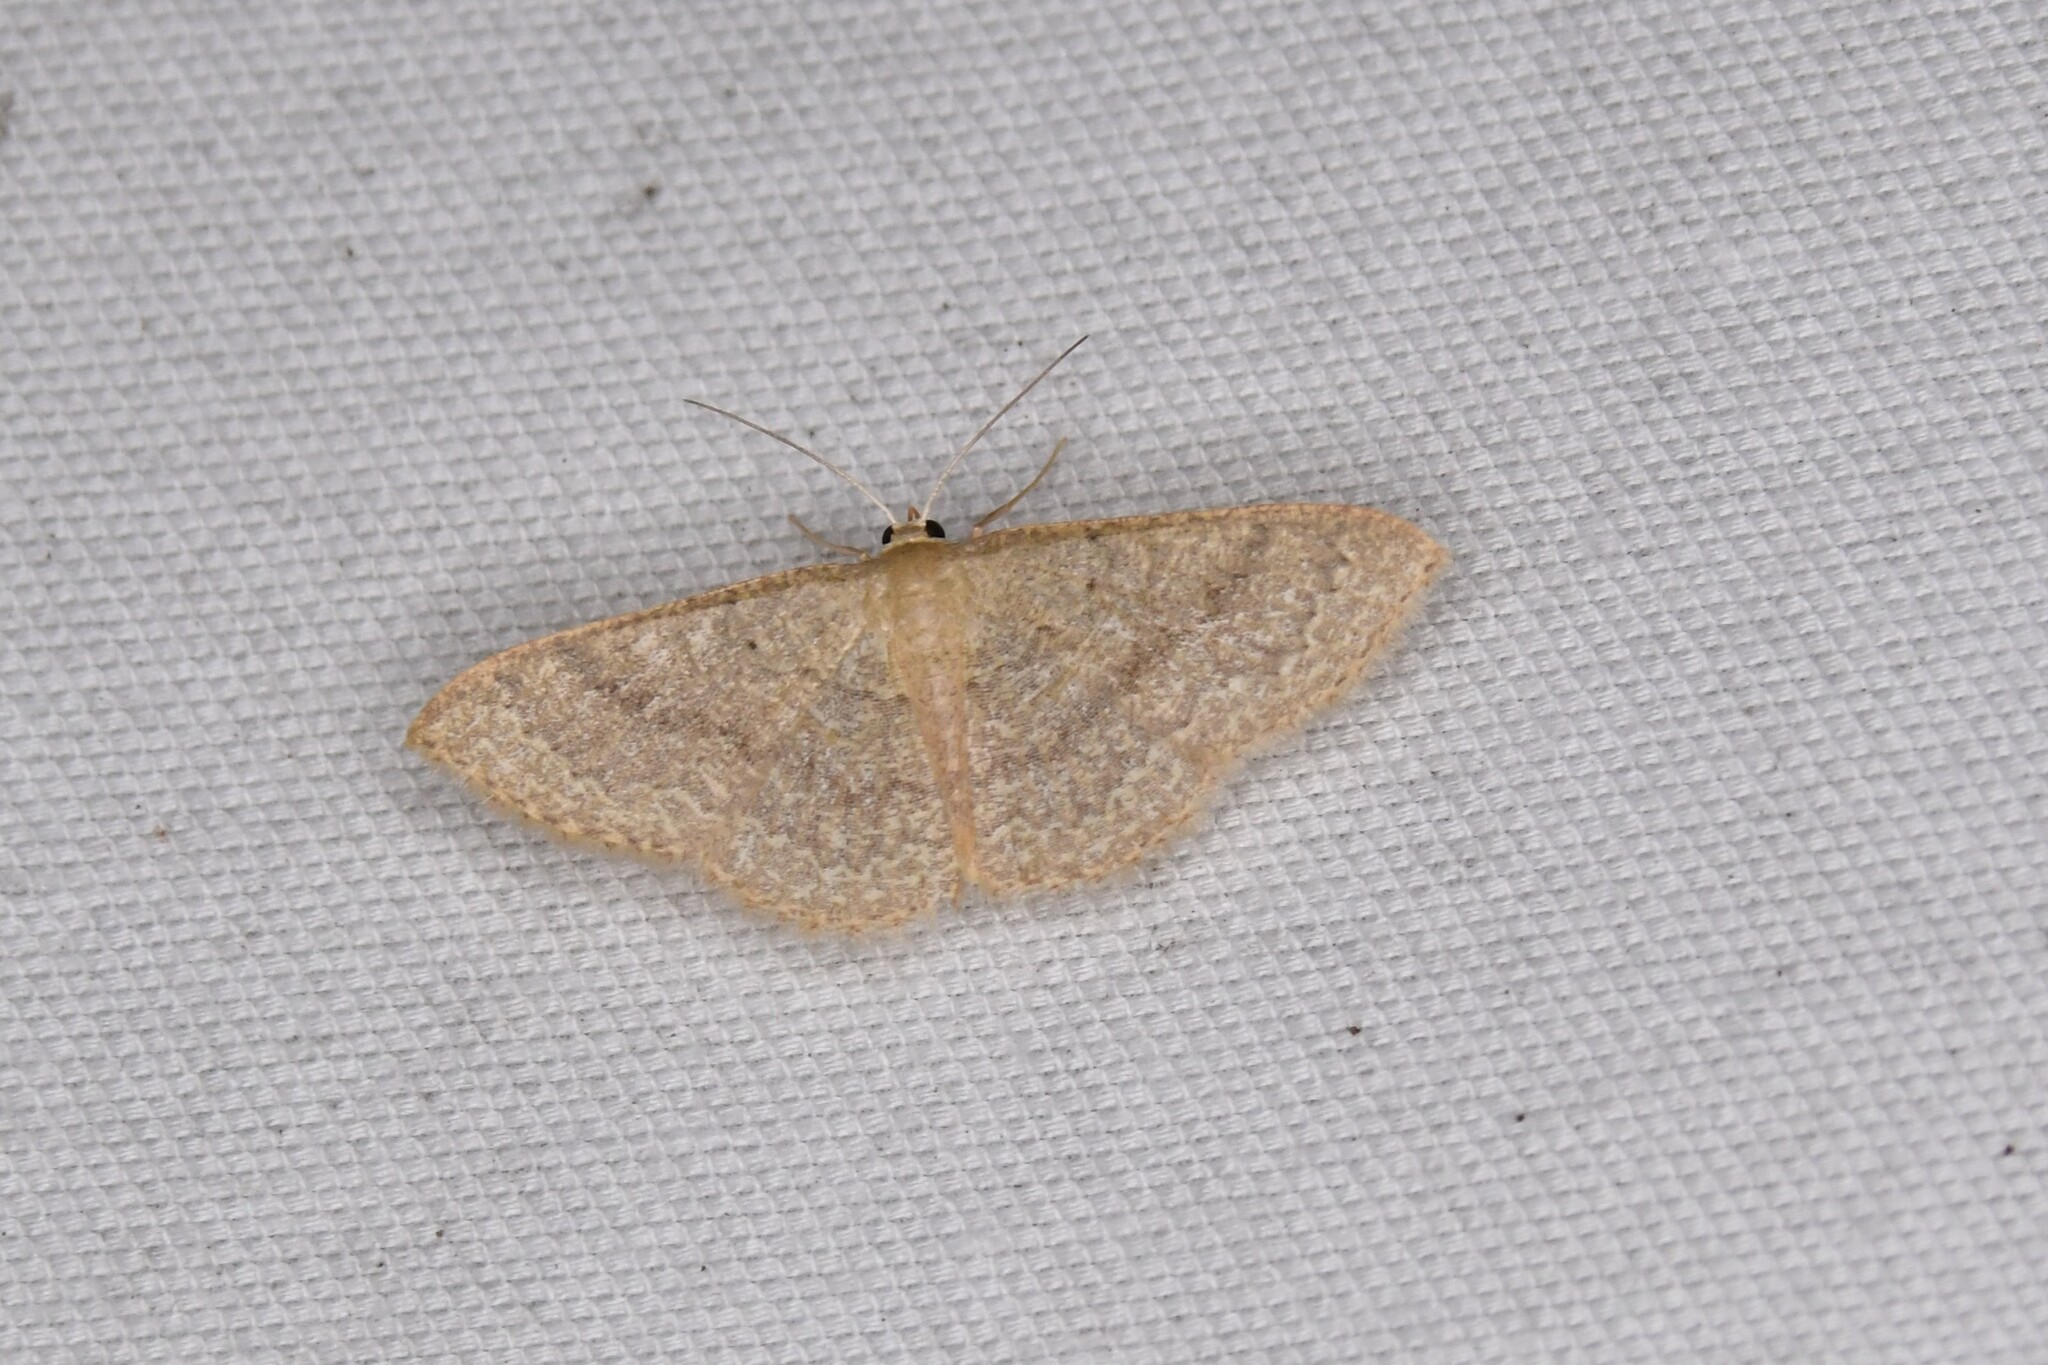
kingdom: Animalia
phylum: Arthropoda
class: Insecta
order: Lepidoptera
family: Geometridae
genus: Pleuroprucha
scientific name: Pleuroprucha insulsaria
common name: Common tan wave
